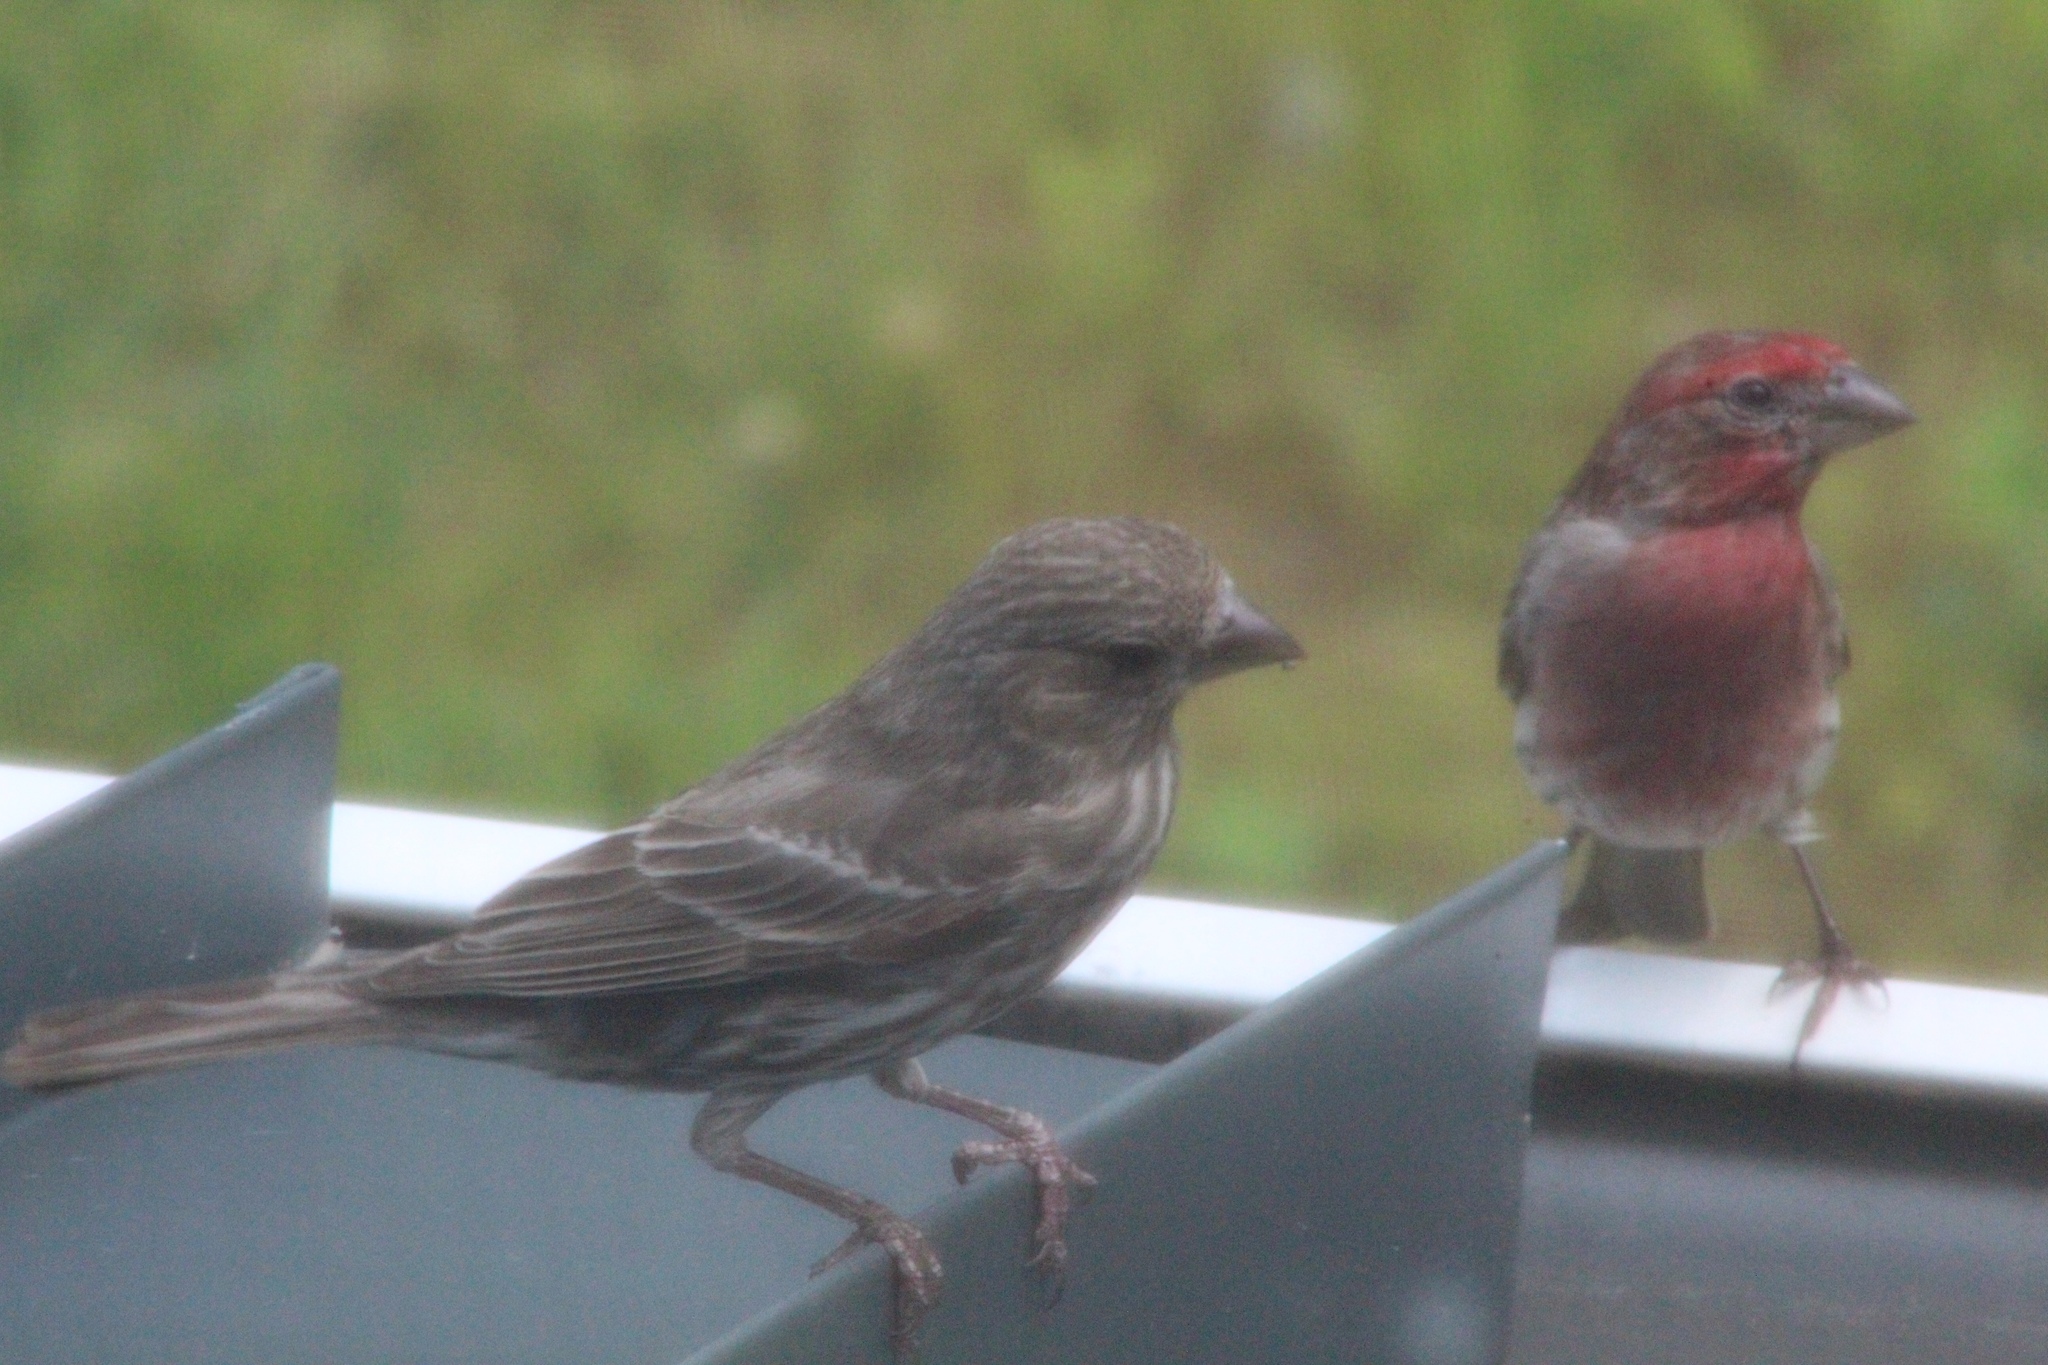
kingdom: Animalia
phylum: Chordata
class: Aves
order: Passeriformes
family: Fringillidae
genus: Haemorhous
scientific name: Haemorhous mexicanus
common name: House finch
